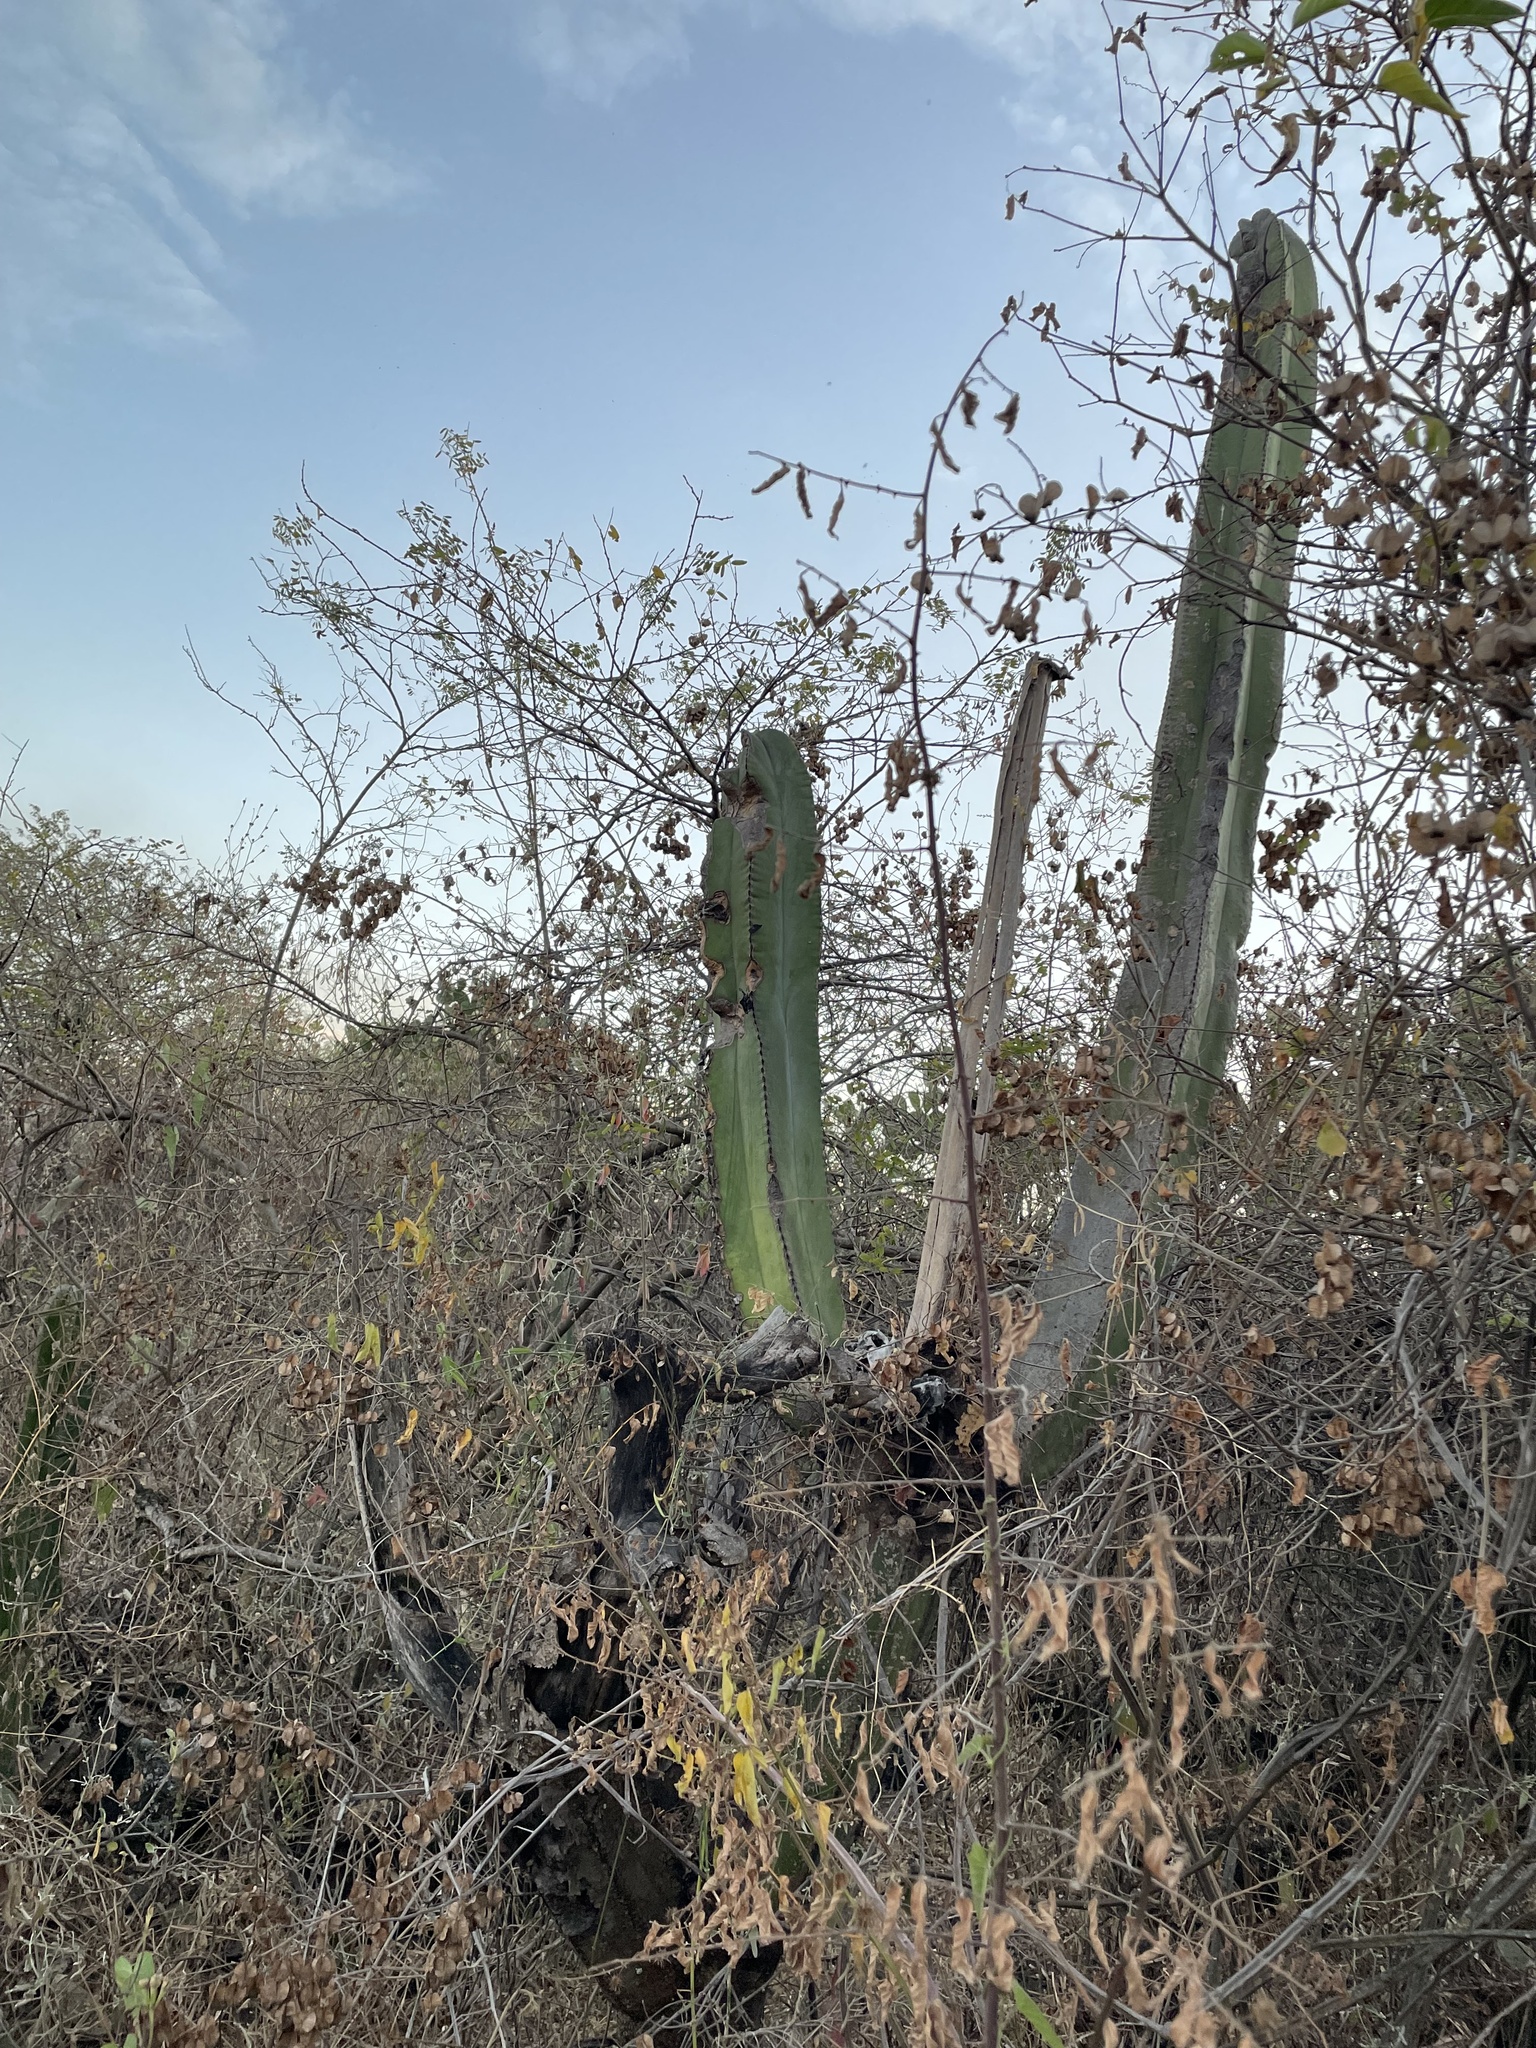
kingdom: Plantae
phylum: Tracheophyta
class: Magnoliopsida
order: Caryophyllales
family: Cactaceae
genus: Marginatocereus
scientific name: Marginatocereus marginatus
